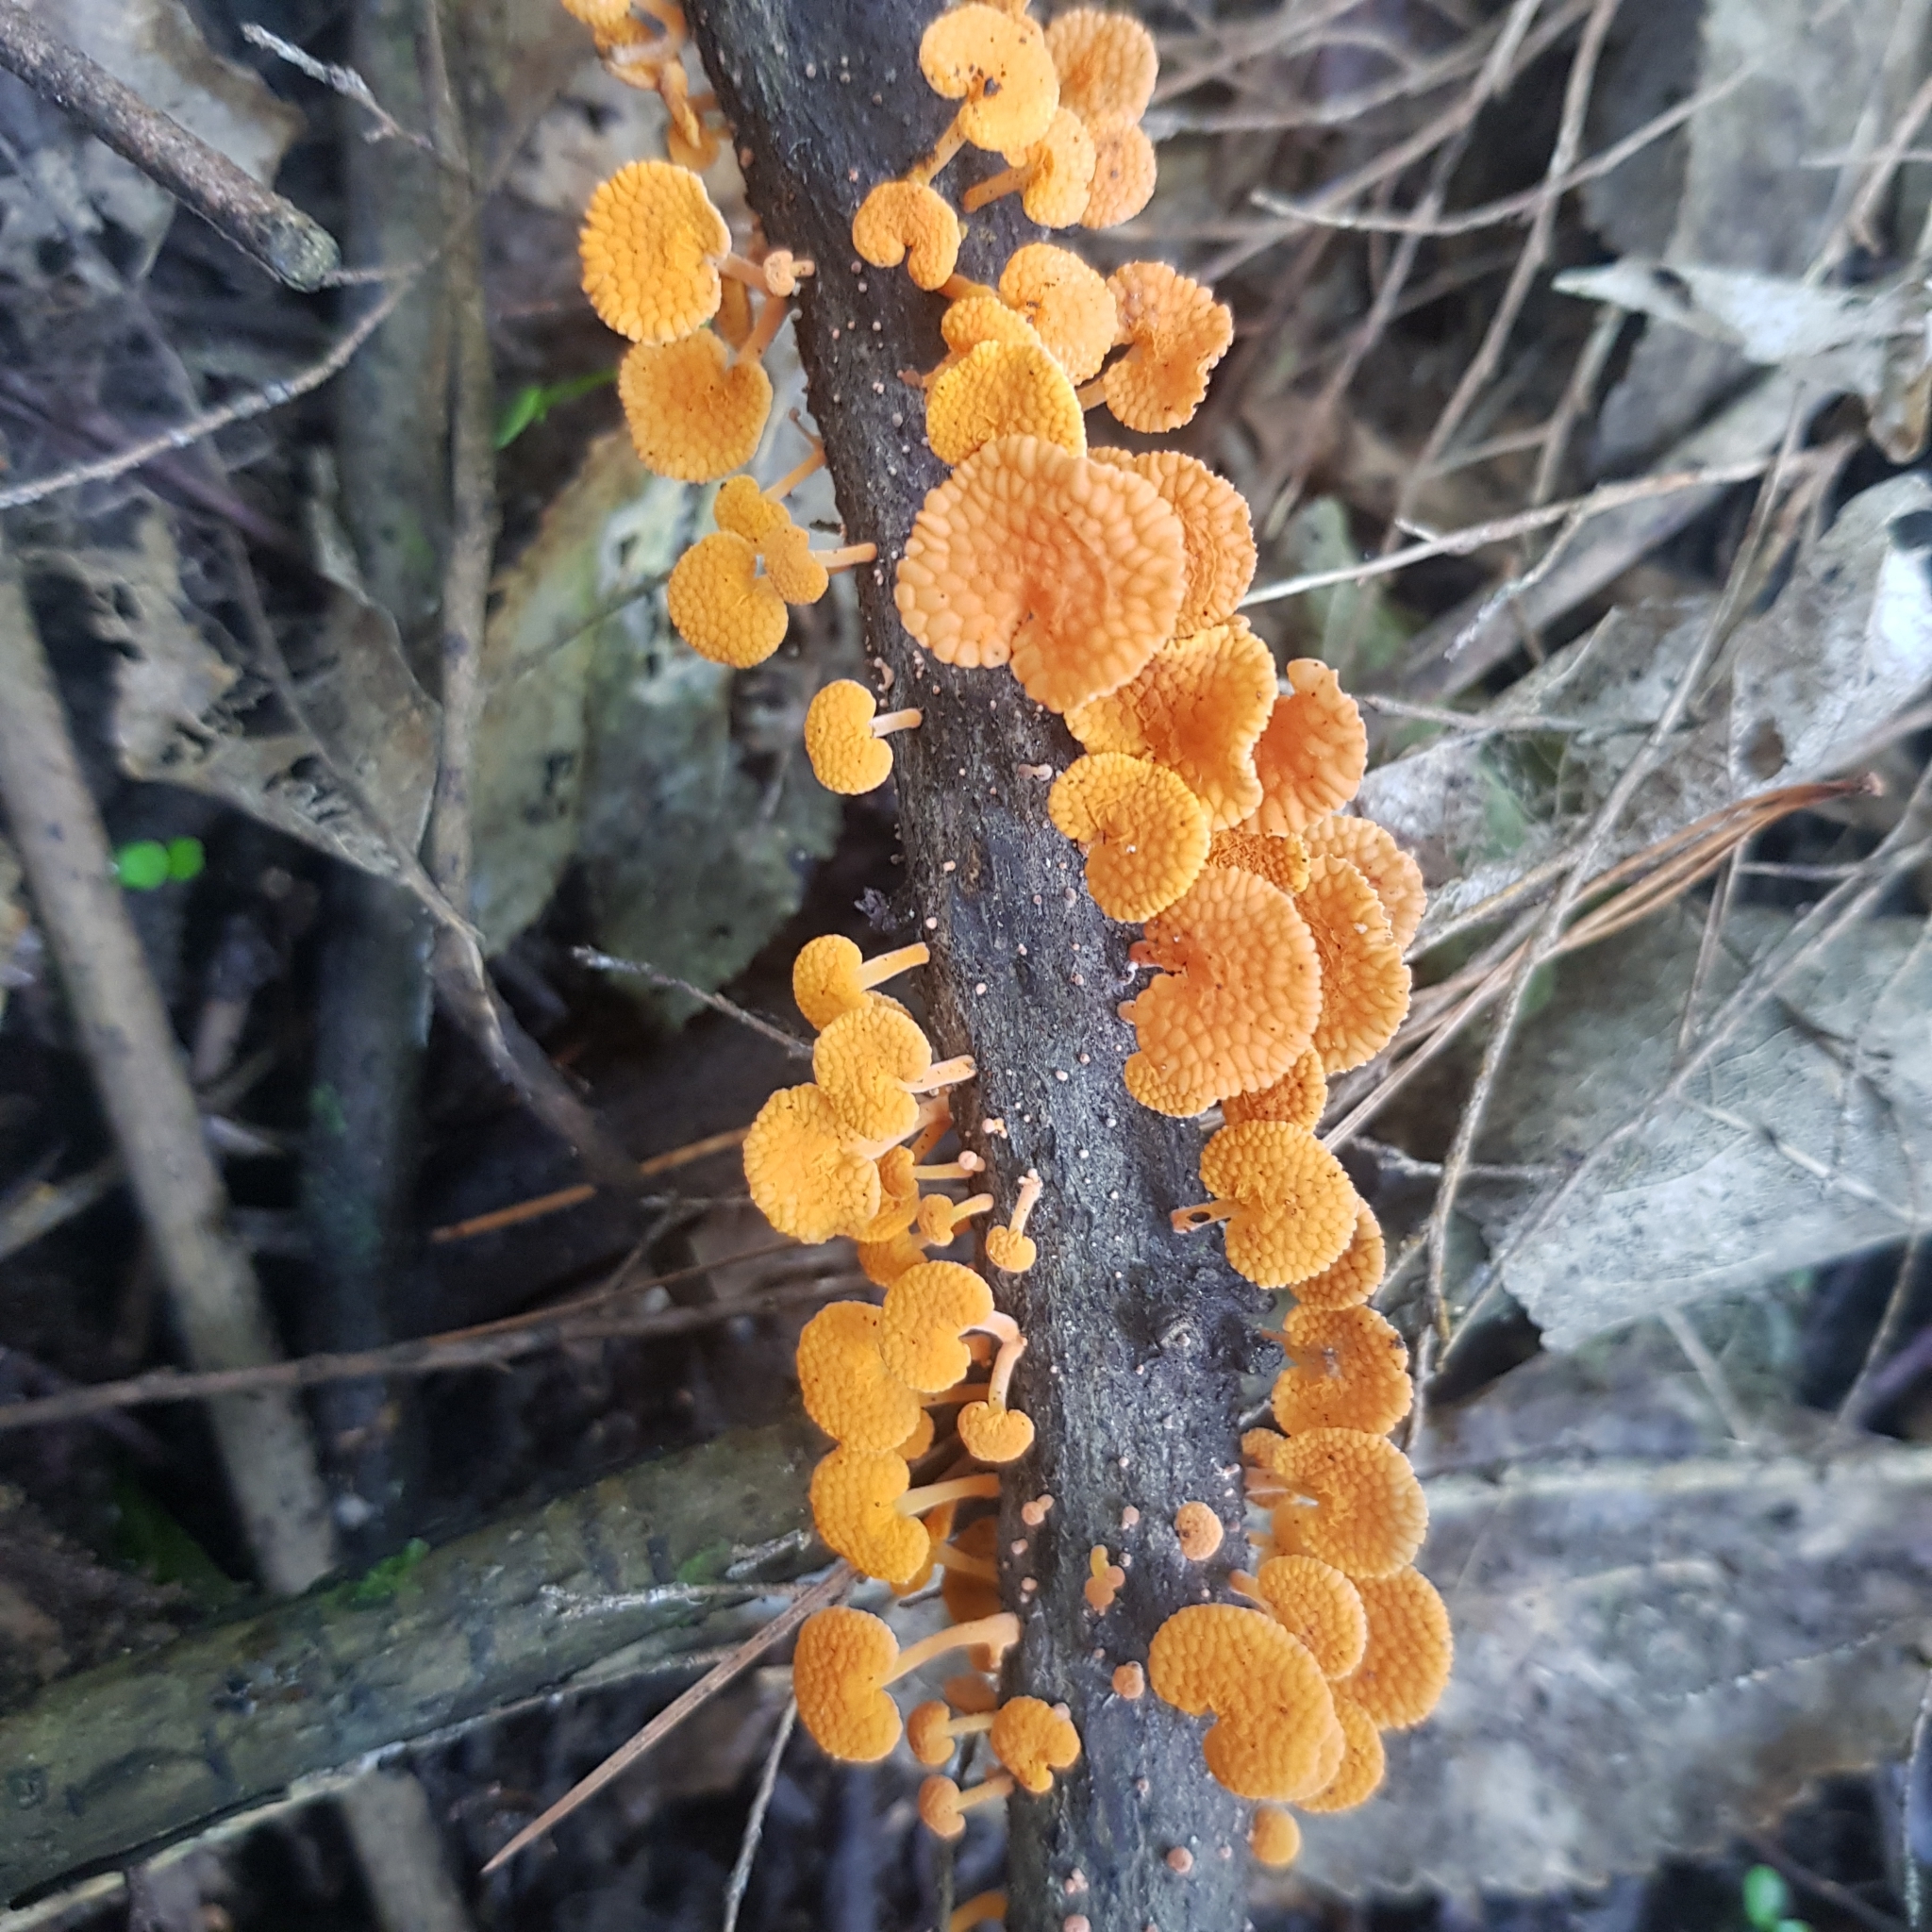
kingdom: Fungi
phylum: Basidiomycota
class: Agaricomycetes
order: Agaricales
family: Mycenaceae
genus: Favolaschia
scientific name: Favolaschia claudopus
